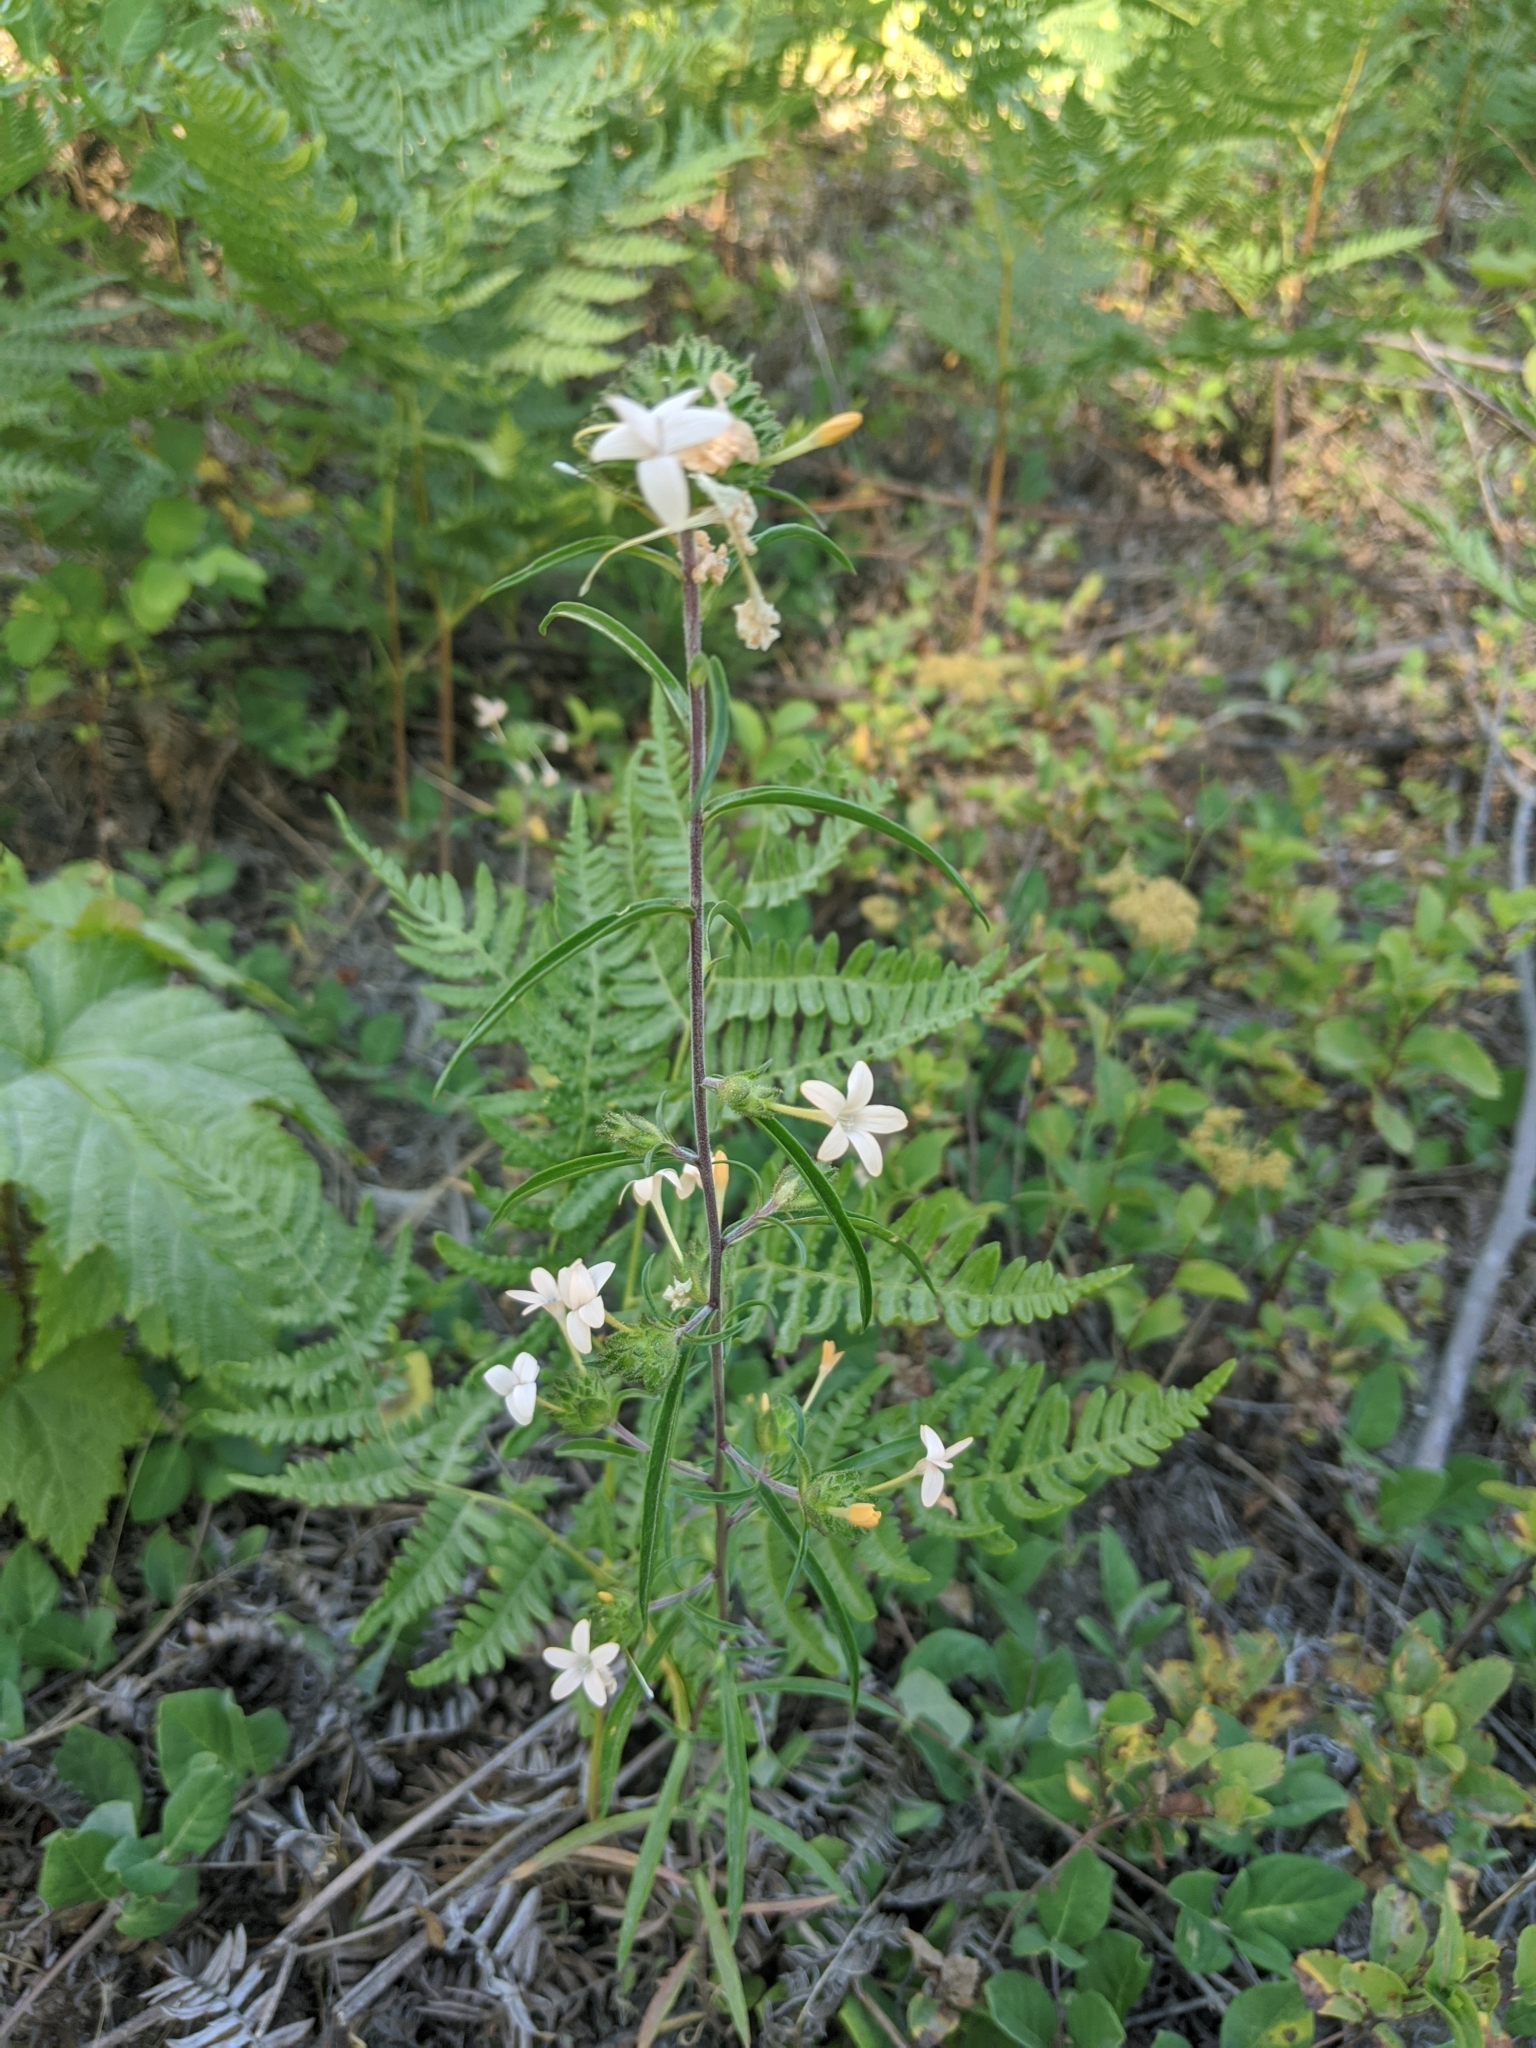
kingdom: Plantae
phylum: Tracheophyta
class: Magnoliopsida
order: Ericales
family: Polemoniaceae
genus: Collomia
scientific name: Collomia grandiflora
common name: California strawflower
